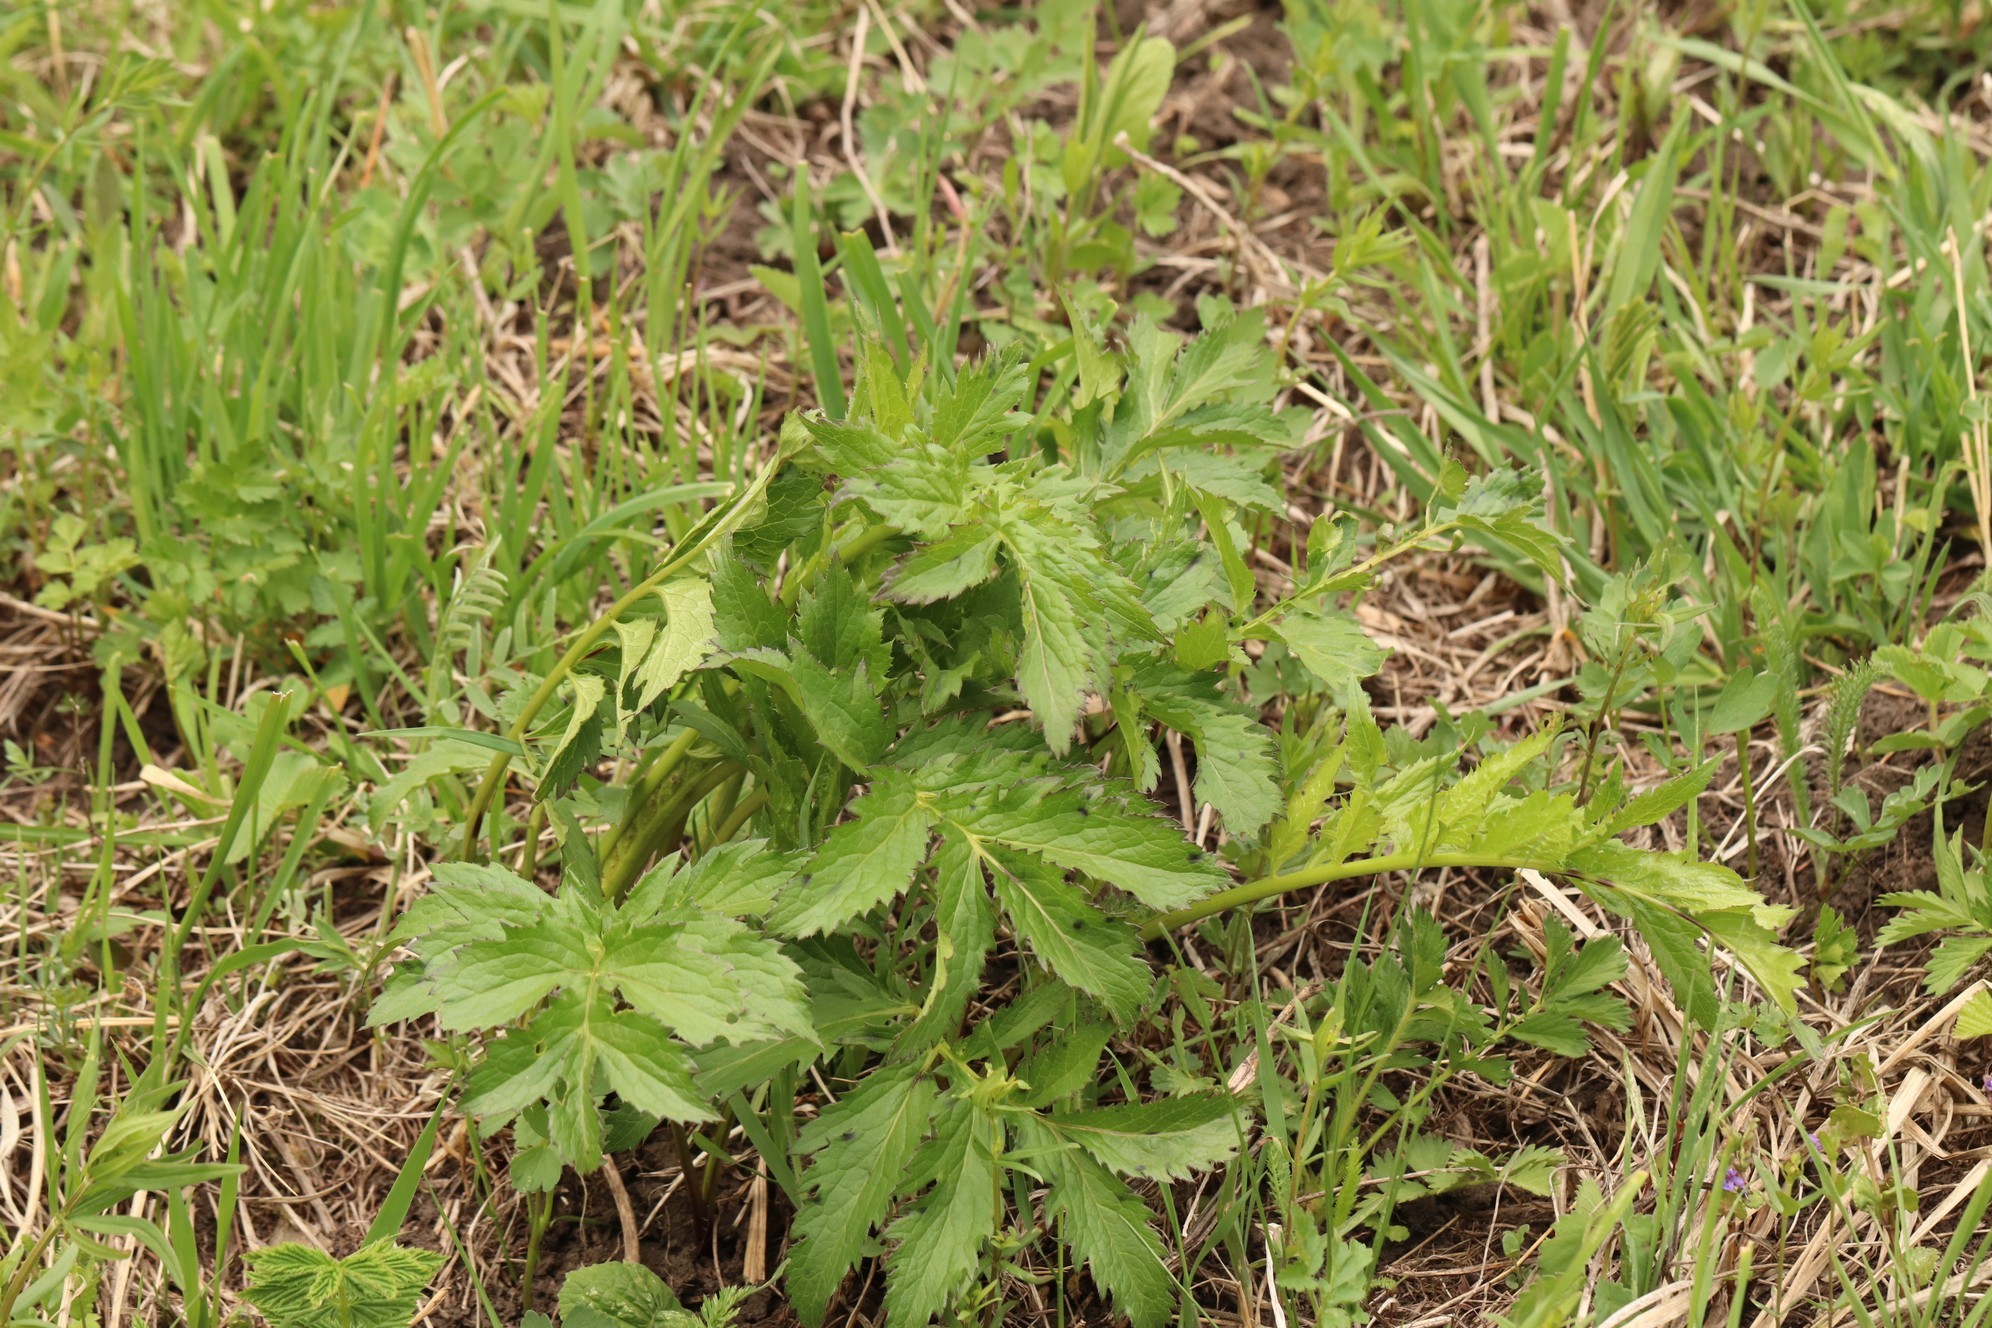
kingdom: Plantae
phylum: Tracheophyta
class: Magnoliopsida
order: Asterales
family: Asteraceae
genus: Serratula
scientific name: Serratula coronata
